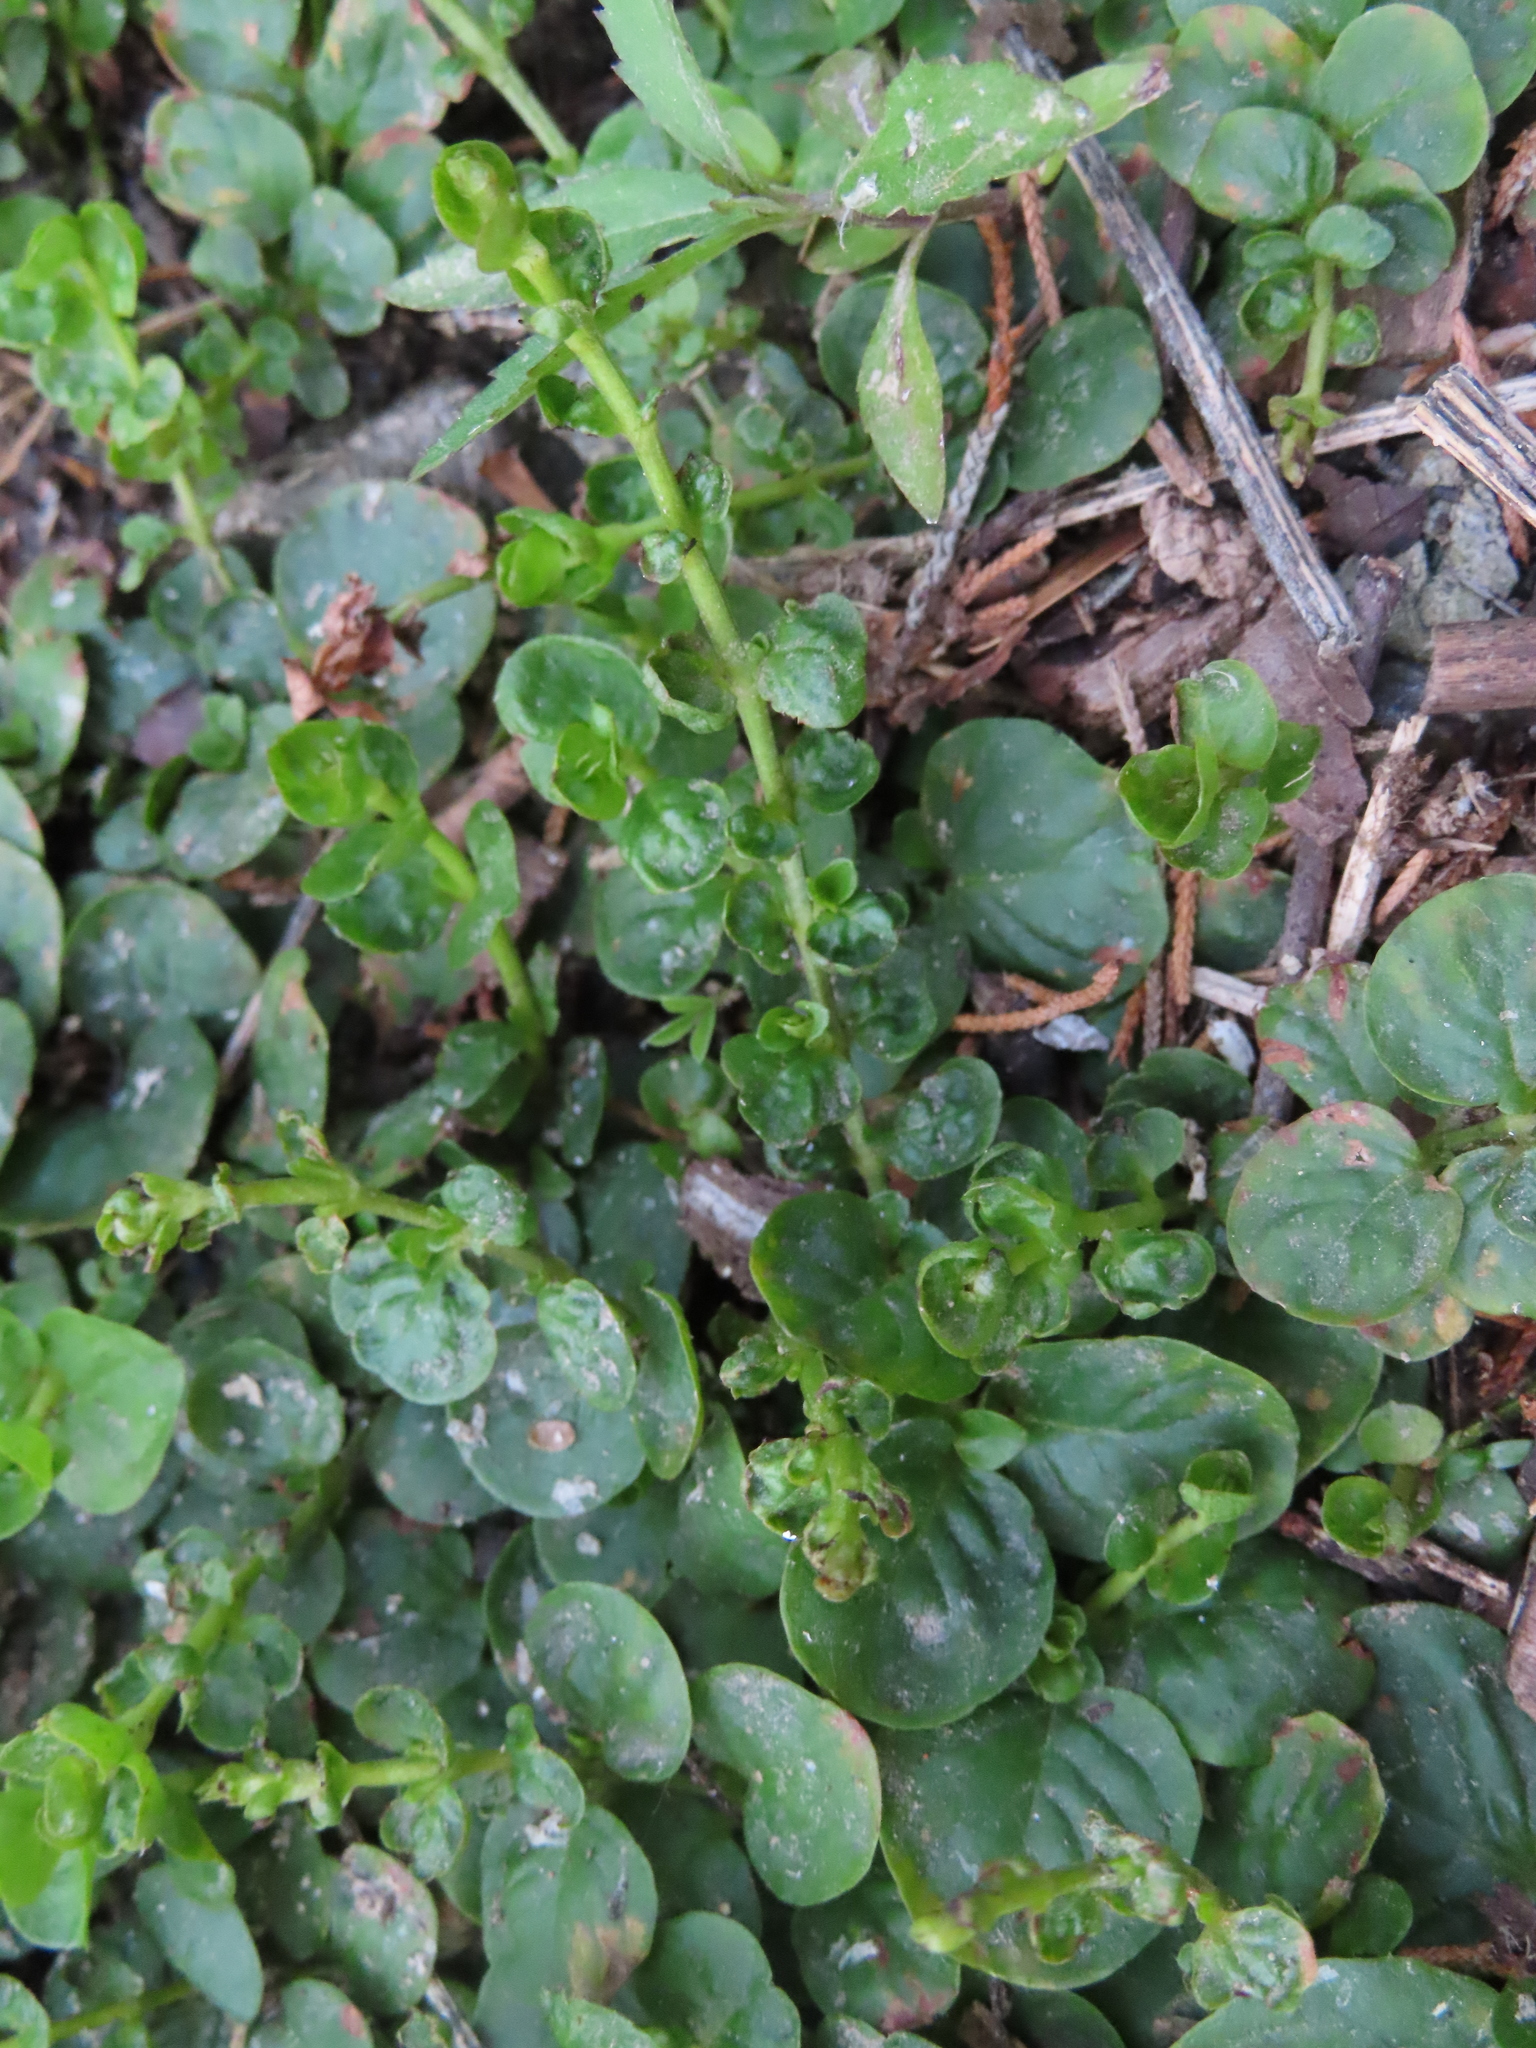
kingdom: Plantae
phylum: Tracheophyta
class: Magnoliopsida
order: Ericales
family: Primulaceae
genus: Lysimachia
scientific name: Lysimachia nummularia
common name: Moneywort
